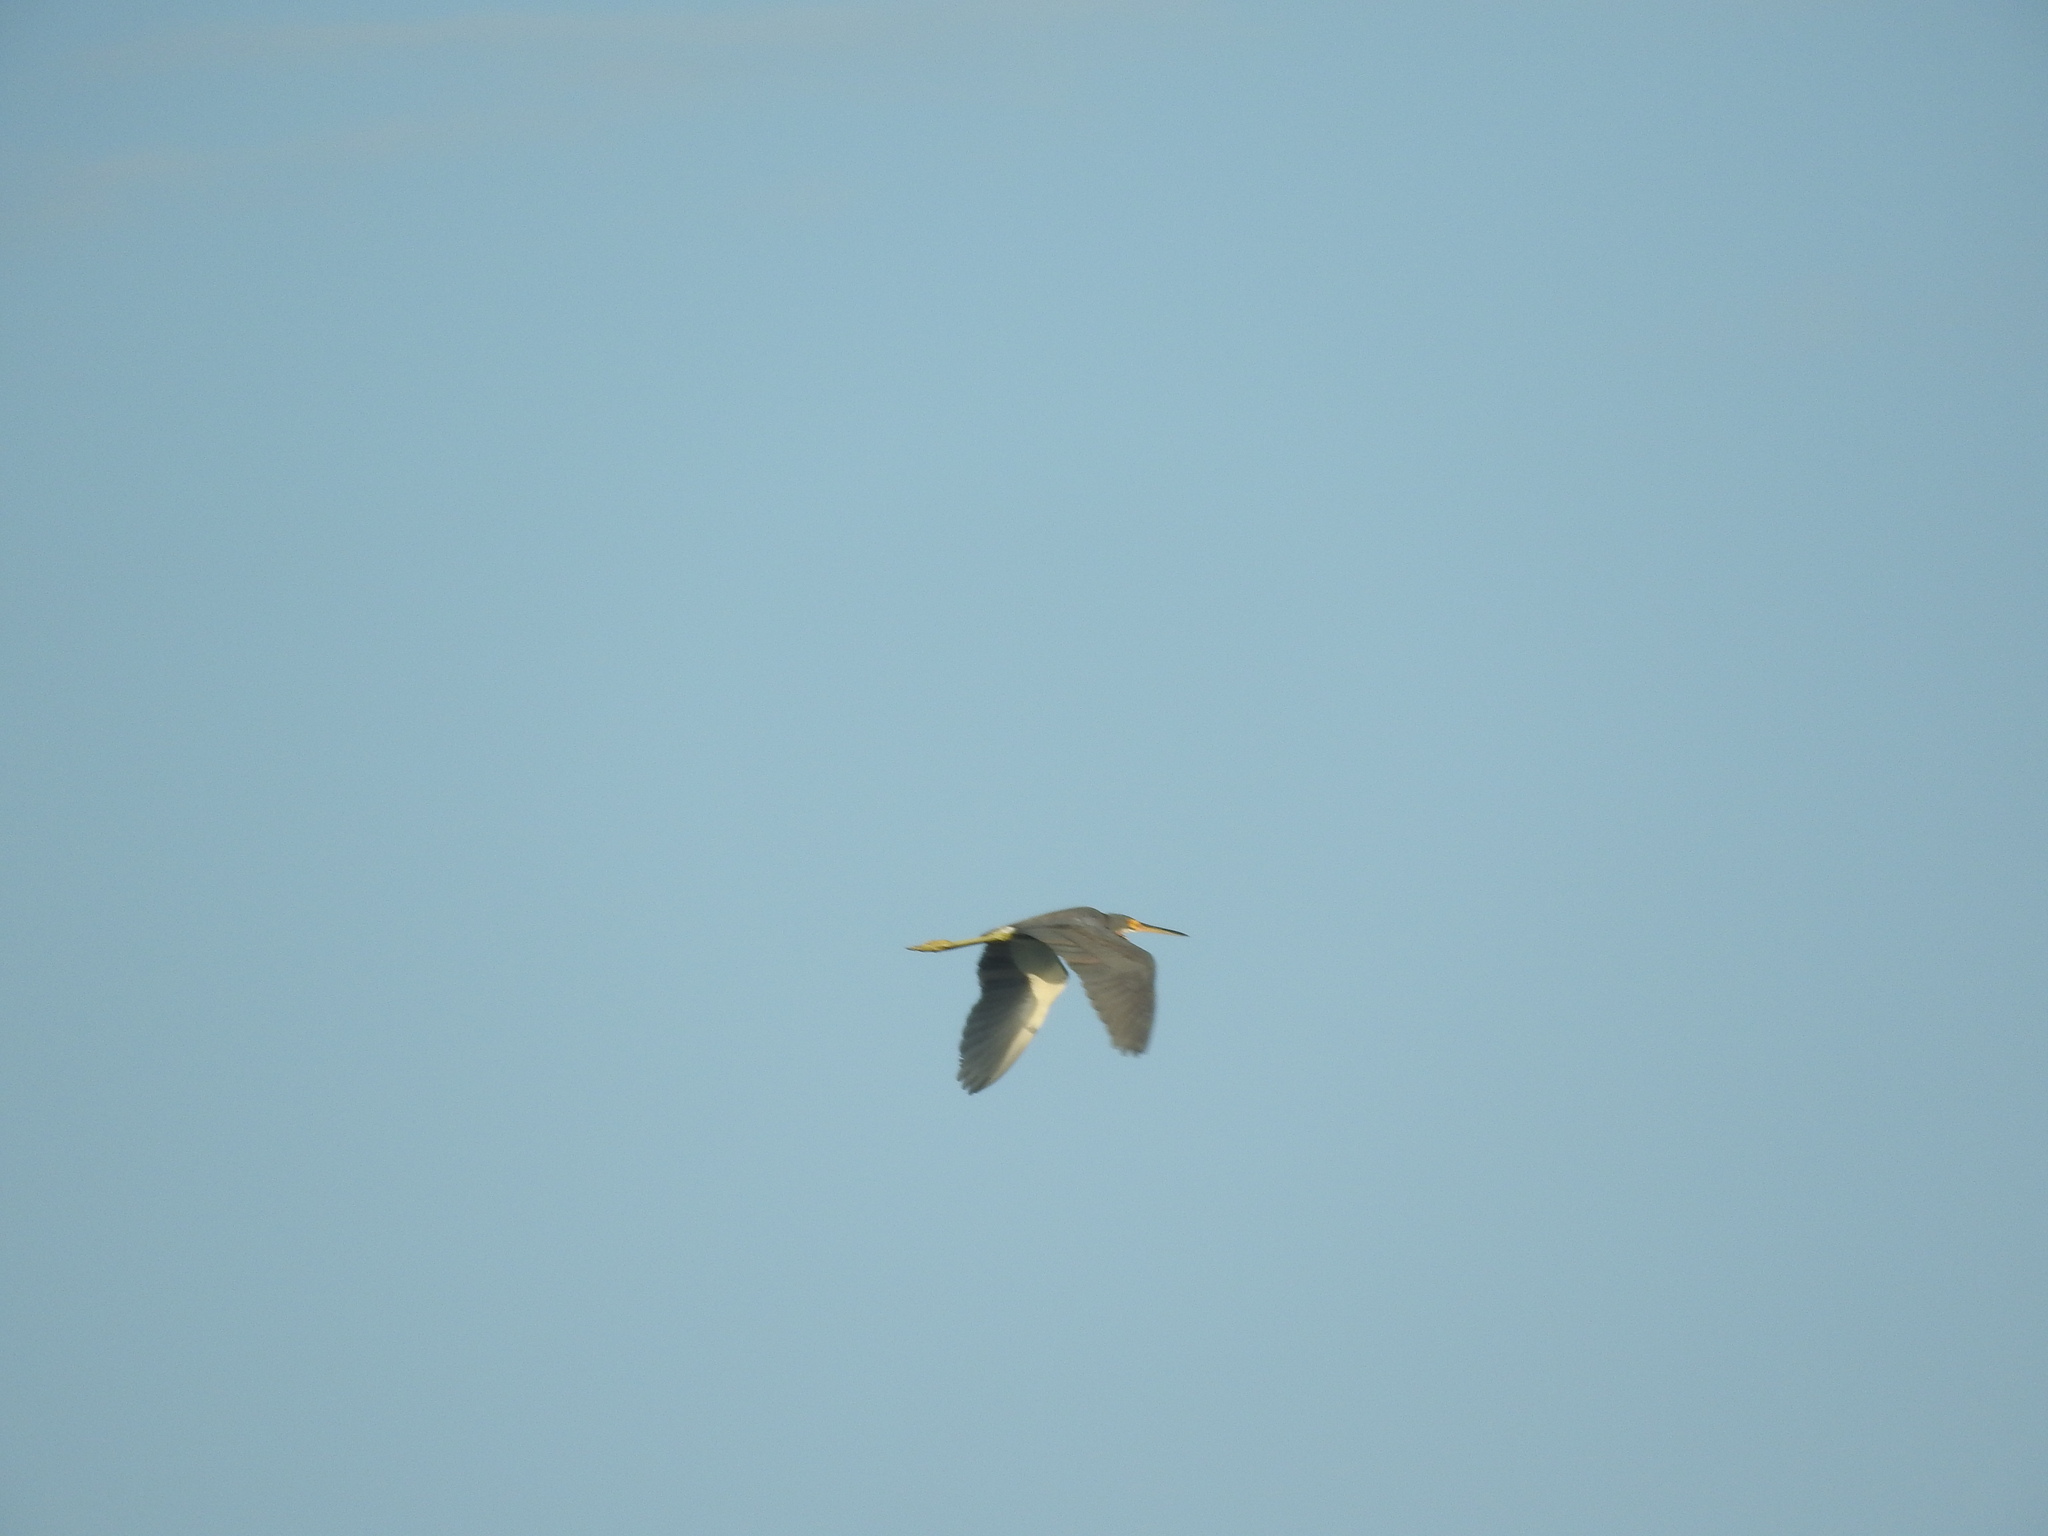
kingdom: Animalia
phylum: Chordata
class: Aves
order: Pelecaniformes
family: Ardeidae
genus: Egretta
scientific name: Egretta tricolor
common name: Tricolored heron
